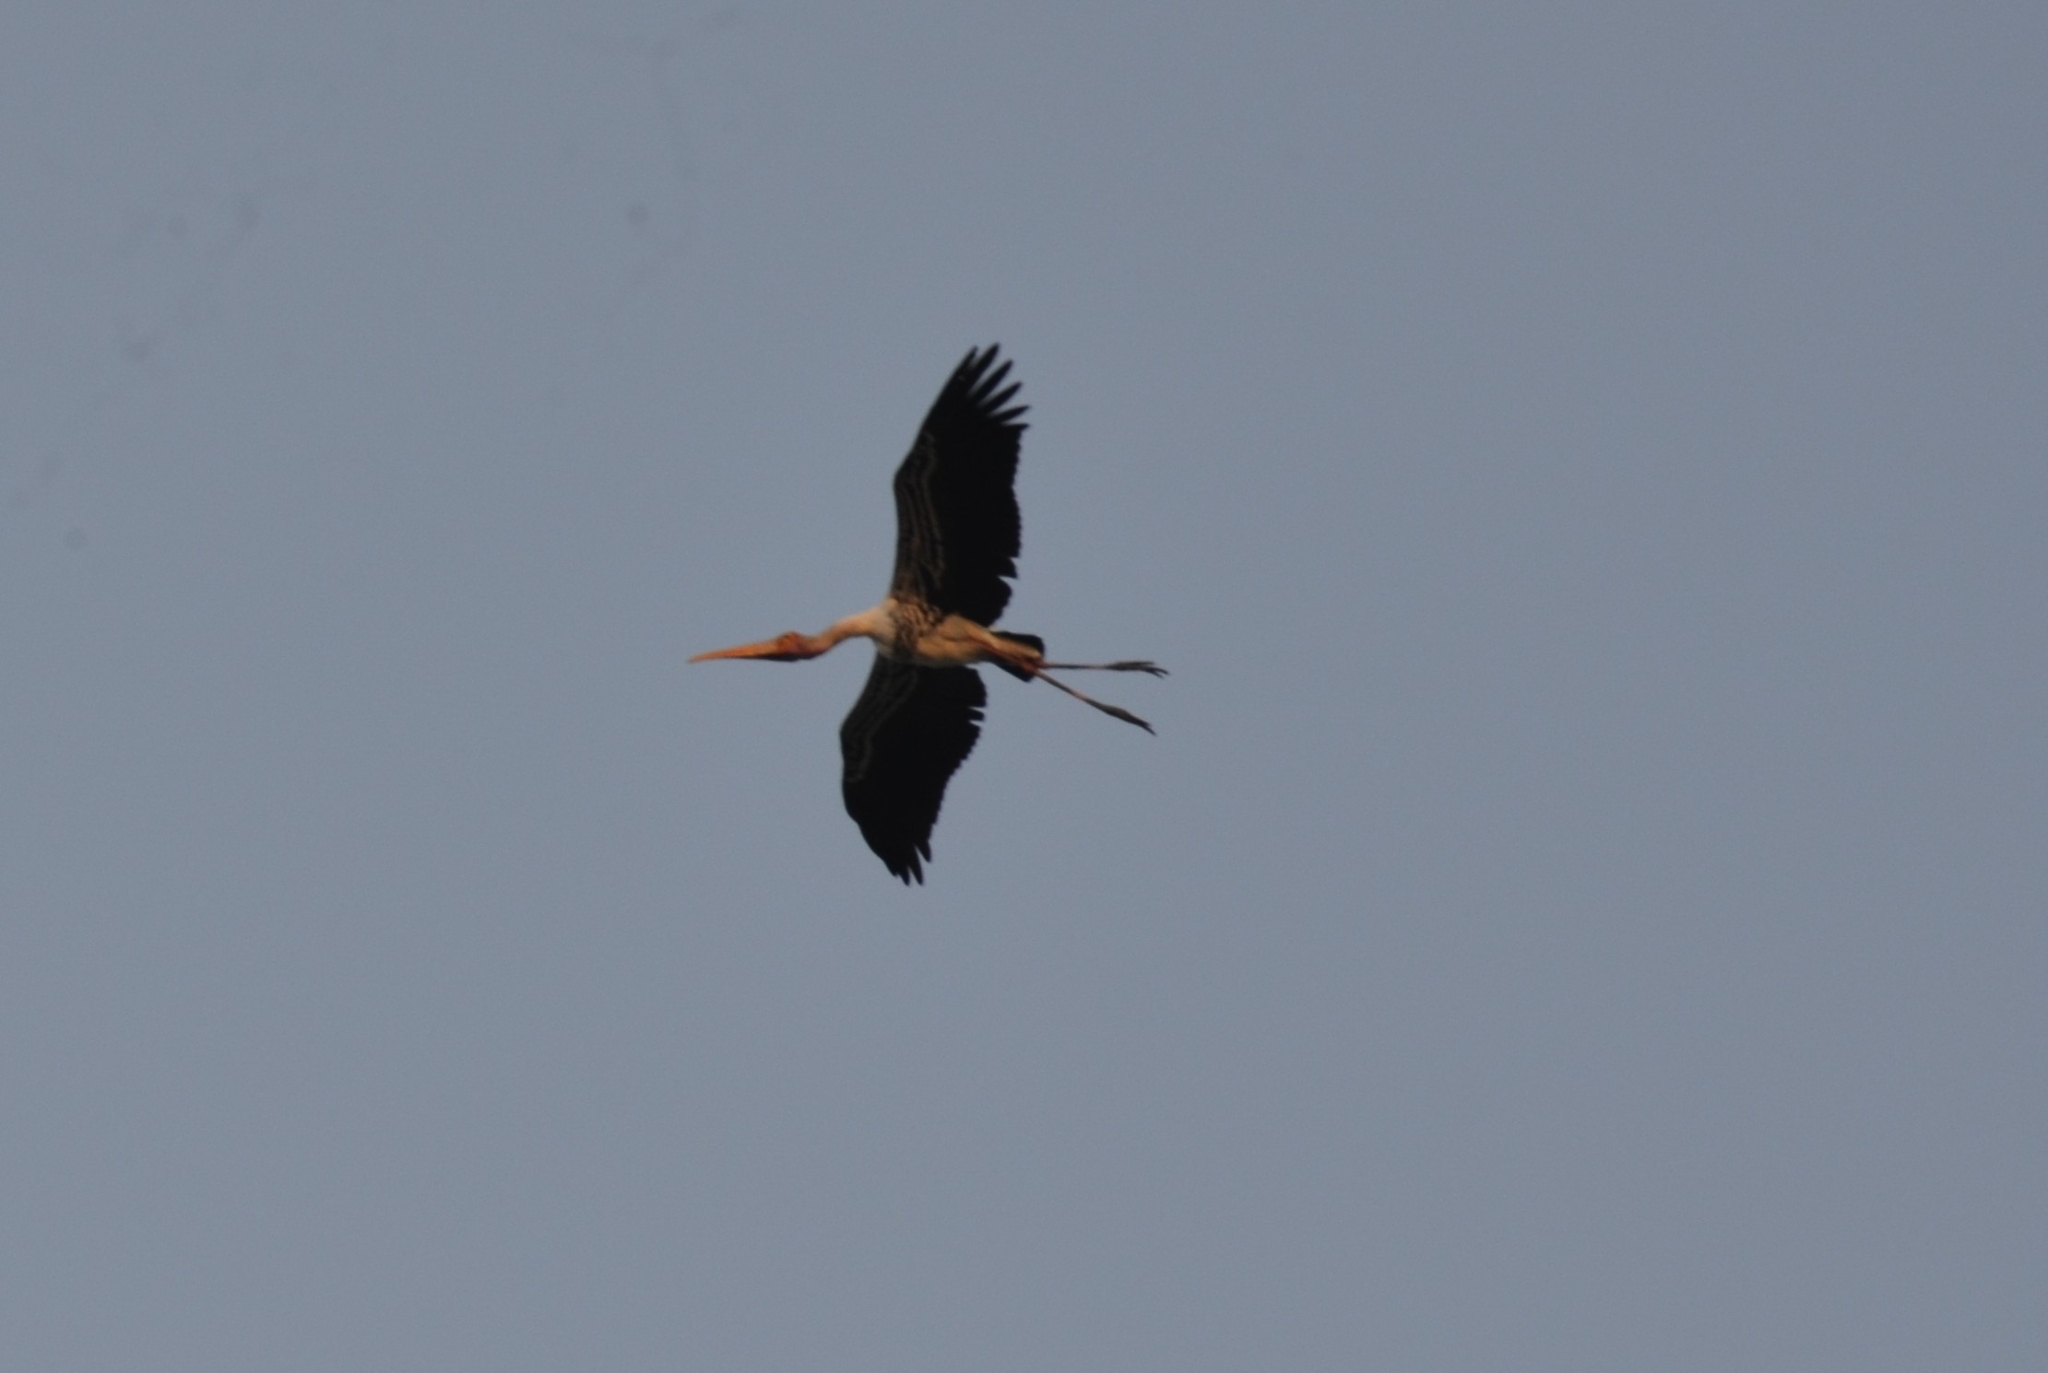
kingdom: Animalia
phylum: Chordata
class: Aves
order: Ciconiiformes
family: Ciconiidae
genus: Mycteria
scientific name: Mycteria leucocephala
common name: Painted stork
